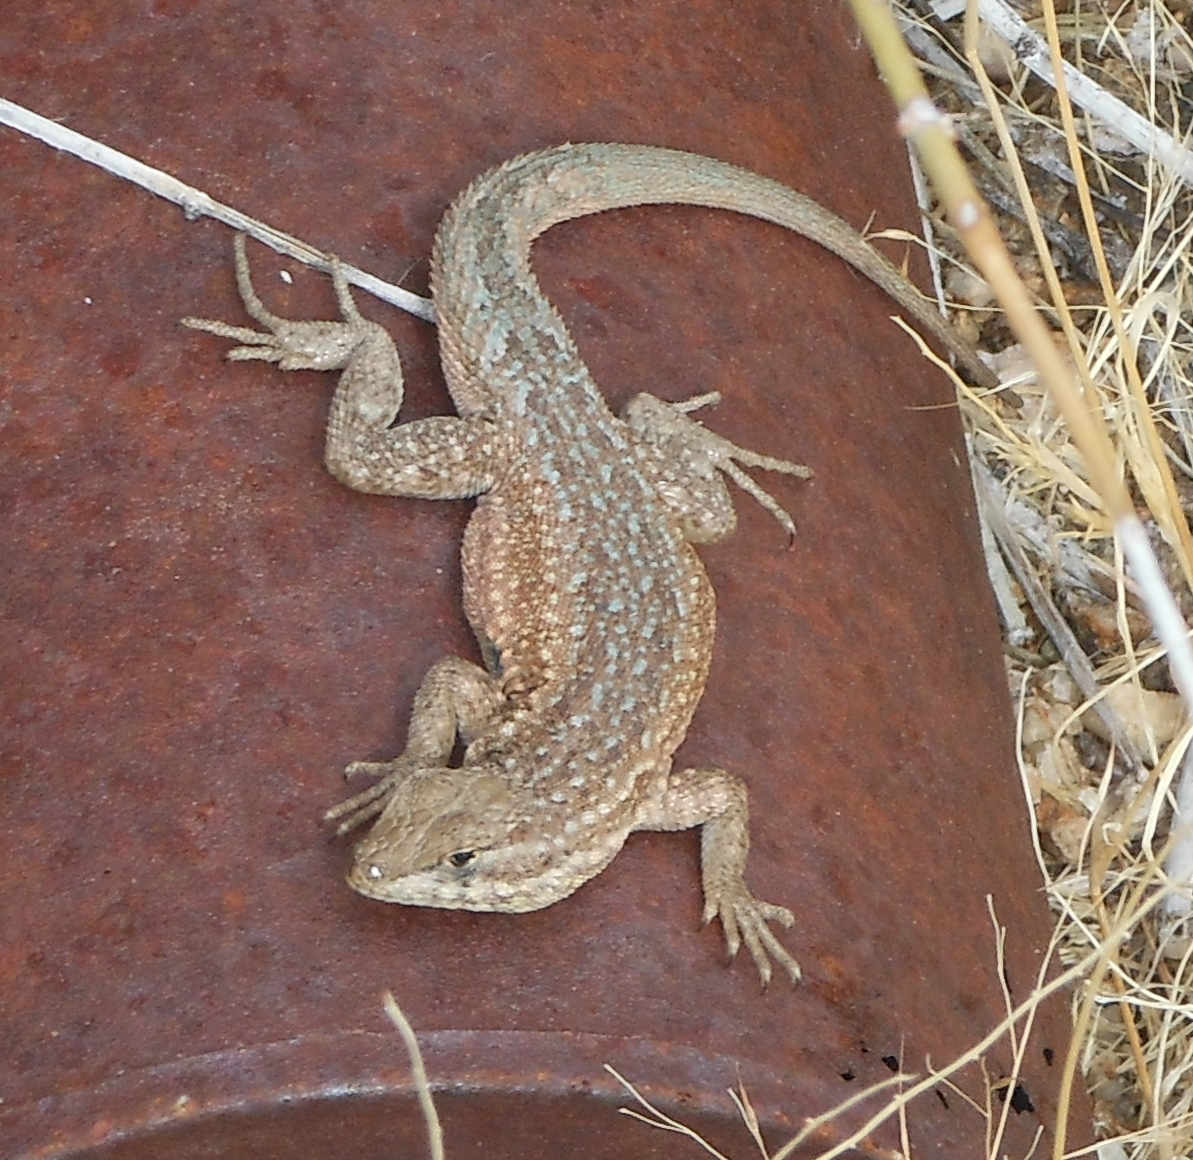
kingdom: Animalia
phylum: Chordata
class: Squamata
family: Phrynosomatidae
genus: Uta
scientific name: Uta stansburiana
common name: Side-blotched lizard
